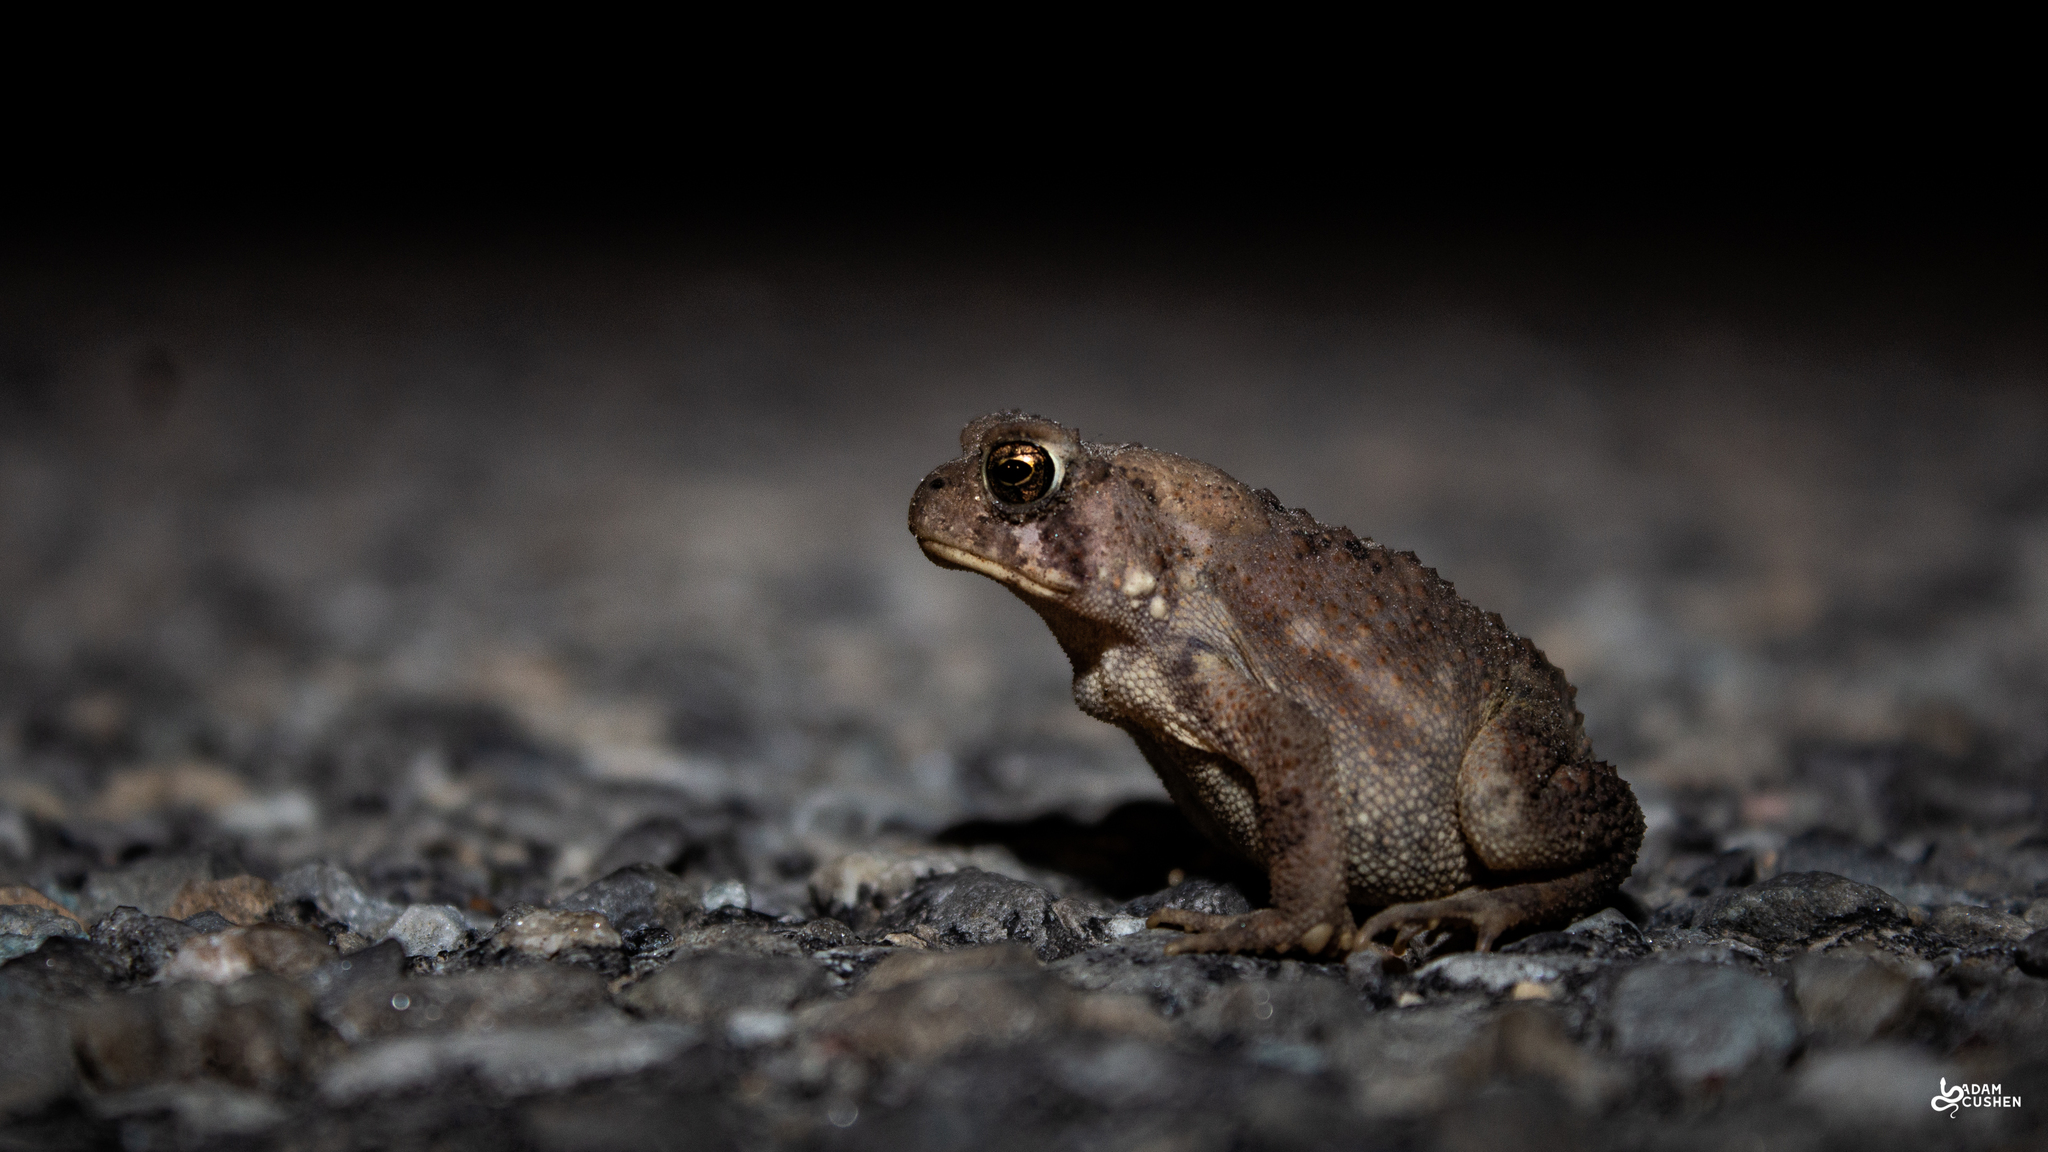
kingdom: Animalia
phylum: Chordata
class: Amphibia
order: Anura
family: Bufonidae
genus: Anaxyrus
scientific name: Anaxyrus americanus
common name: American toad
